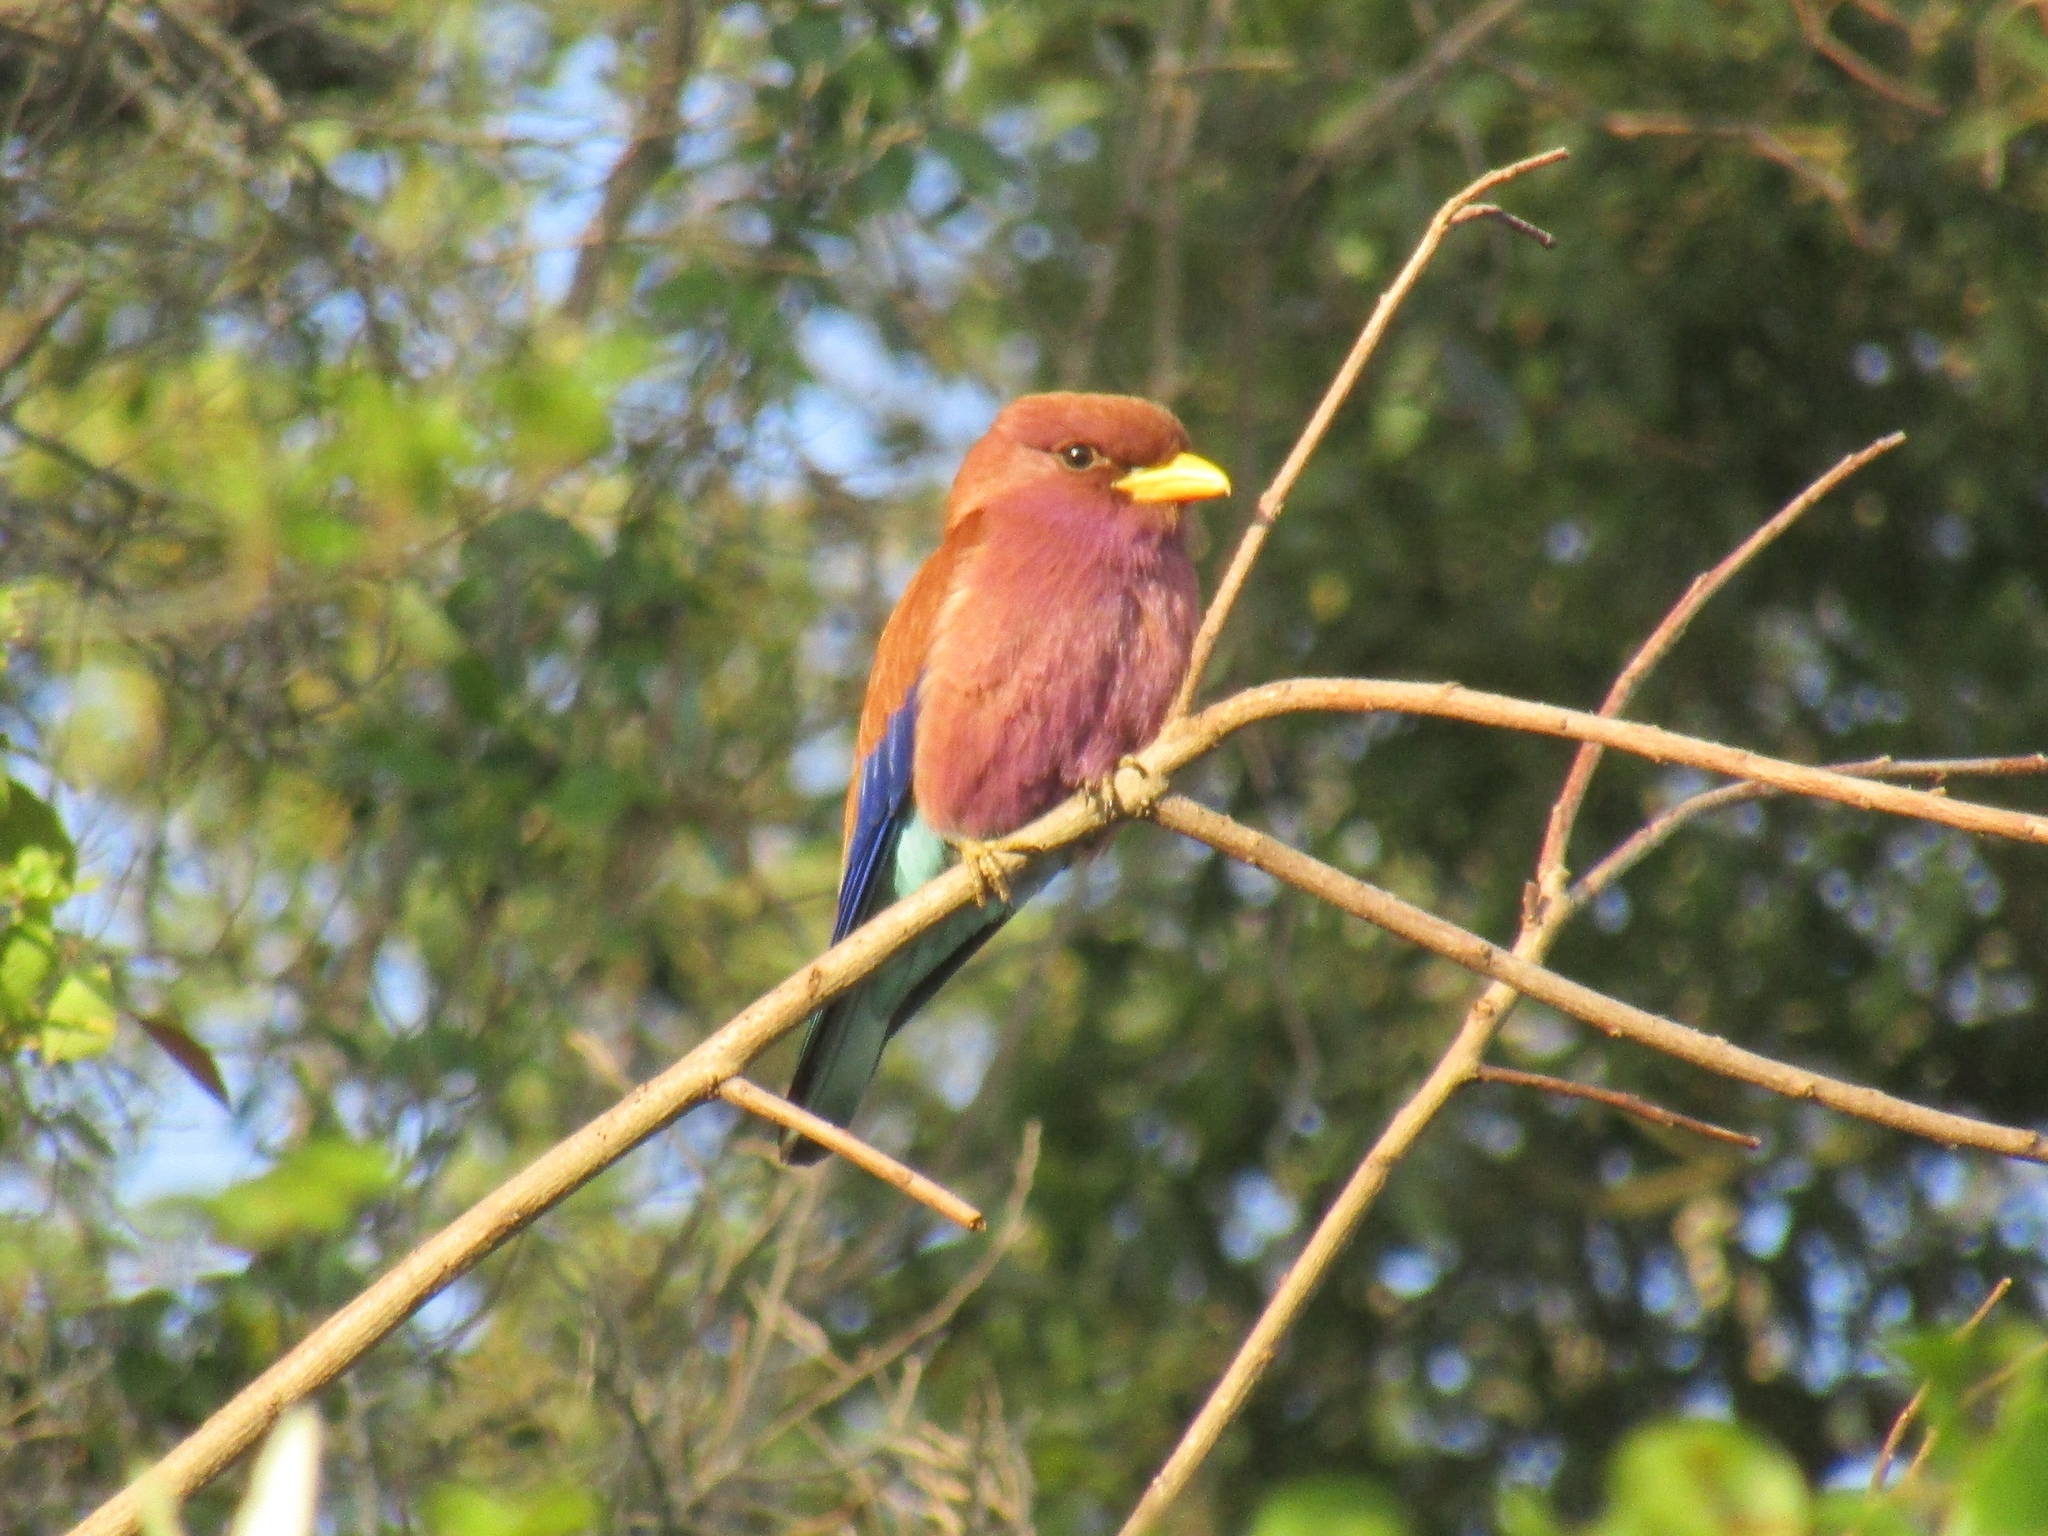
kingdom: Animalia
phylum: Chordata
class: Aves
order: Coraciiformes
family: Coraciidae
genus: Eurystomus
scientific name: Eurystomus glaucurus
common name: Broad-billed roller
